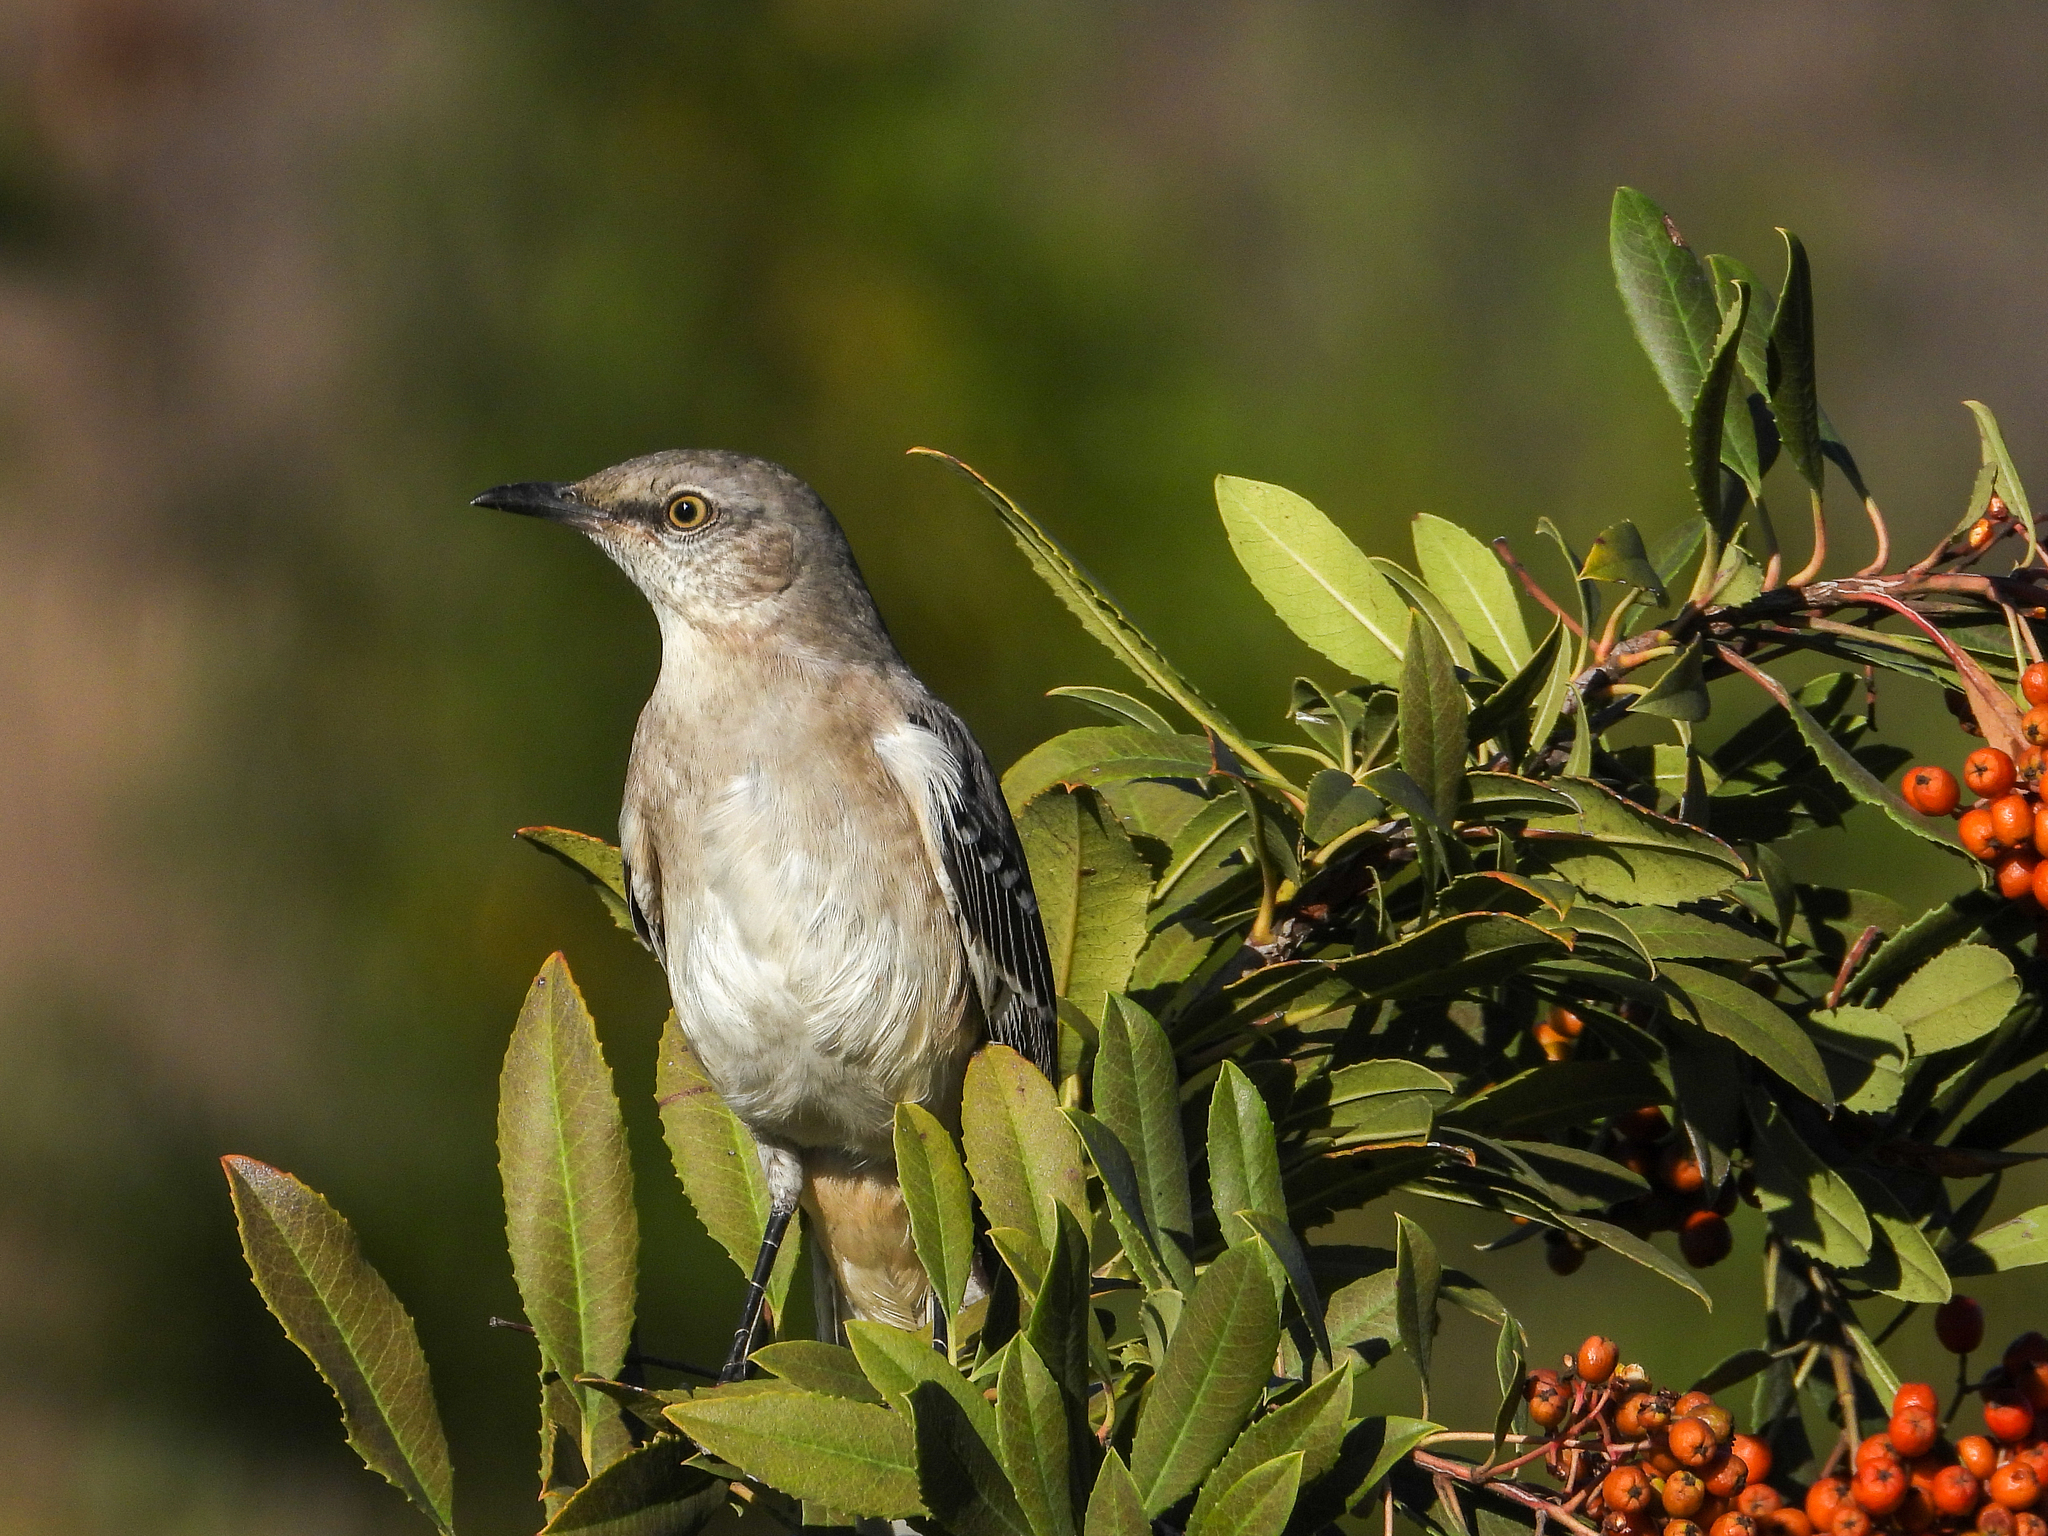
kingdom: Animalia
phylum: Chordata
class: Aves
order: Passeriformes
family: Mimidae
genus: Mimus
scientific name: Mimus polyglottos
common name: Northern mockingbird
